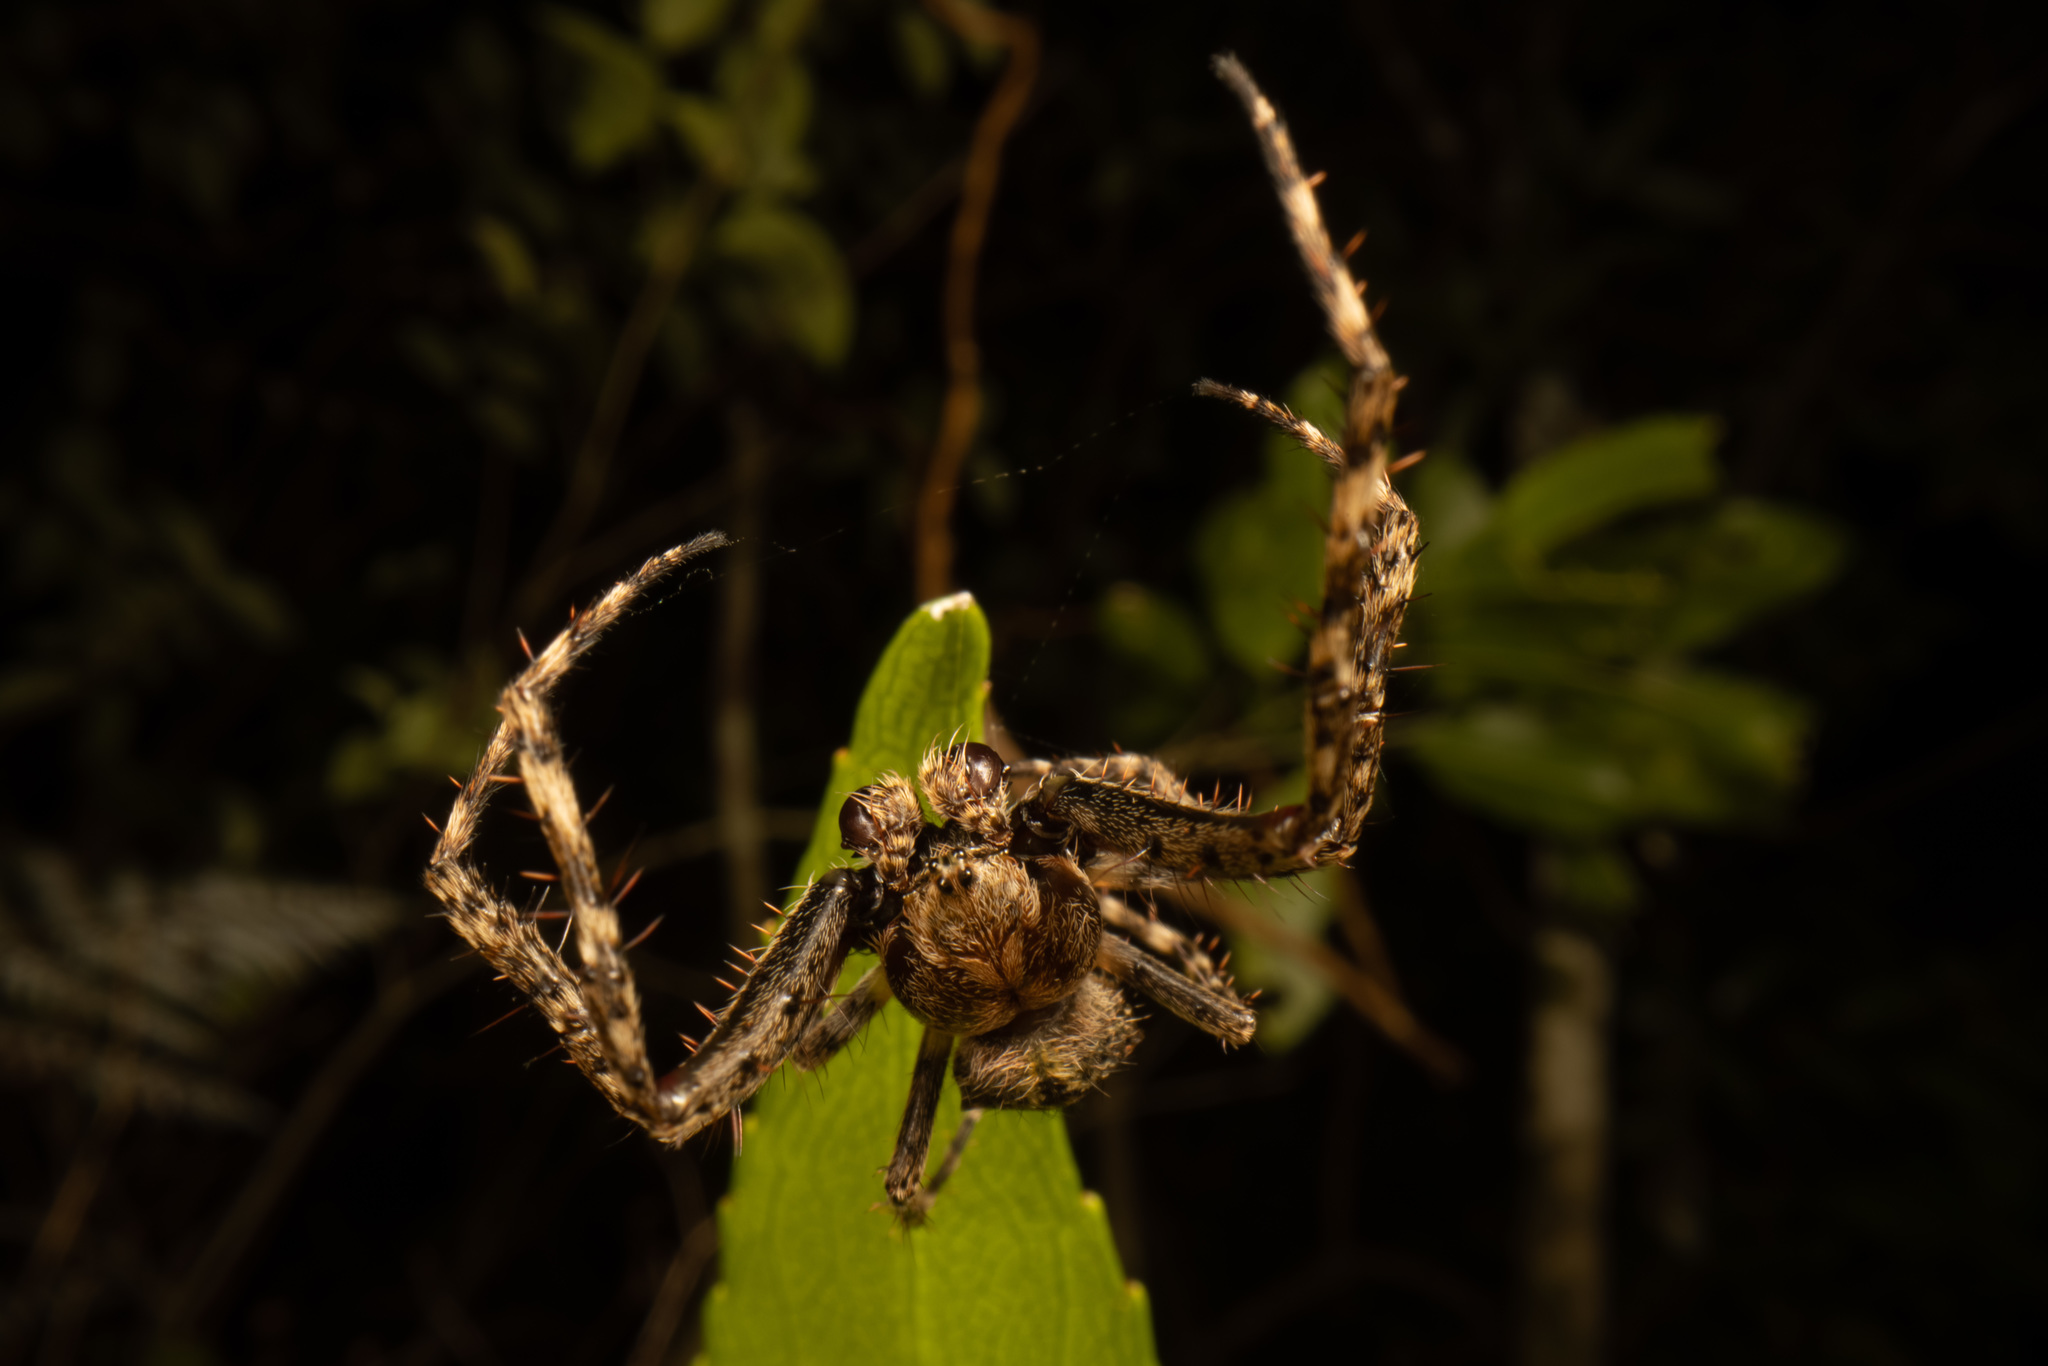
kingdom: Animalia
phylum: Arthropoda
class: Arachnida
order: Araneae
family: Araneidae
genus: Eriophora
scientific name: Eriophora pustulosa
